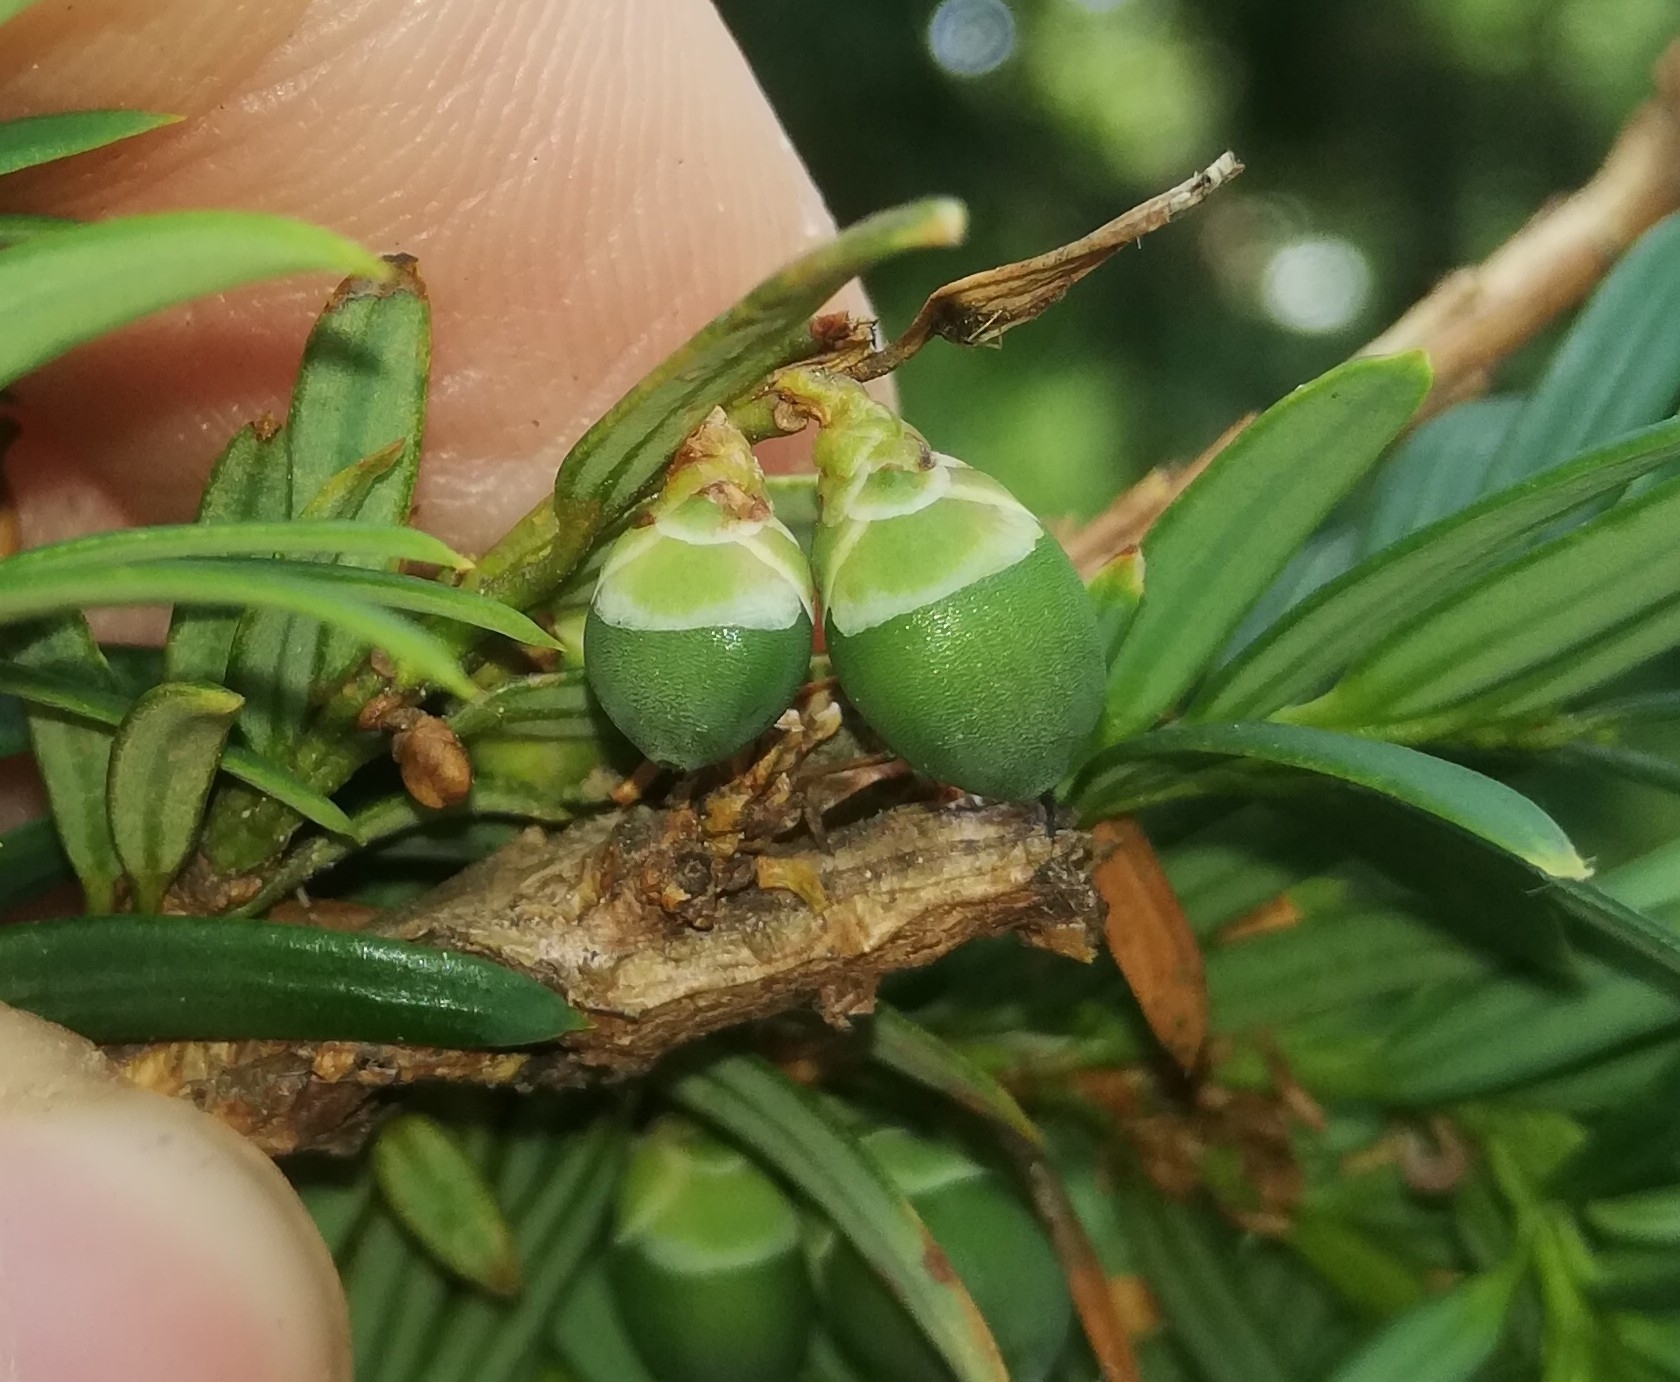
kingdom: Plantae
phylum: Tracheophyta
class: Pinopsida
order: Pinales
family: Taxaceae
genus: Taxus
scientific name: Taxus baccata
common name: Yew
